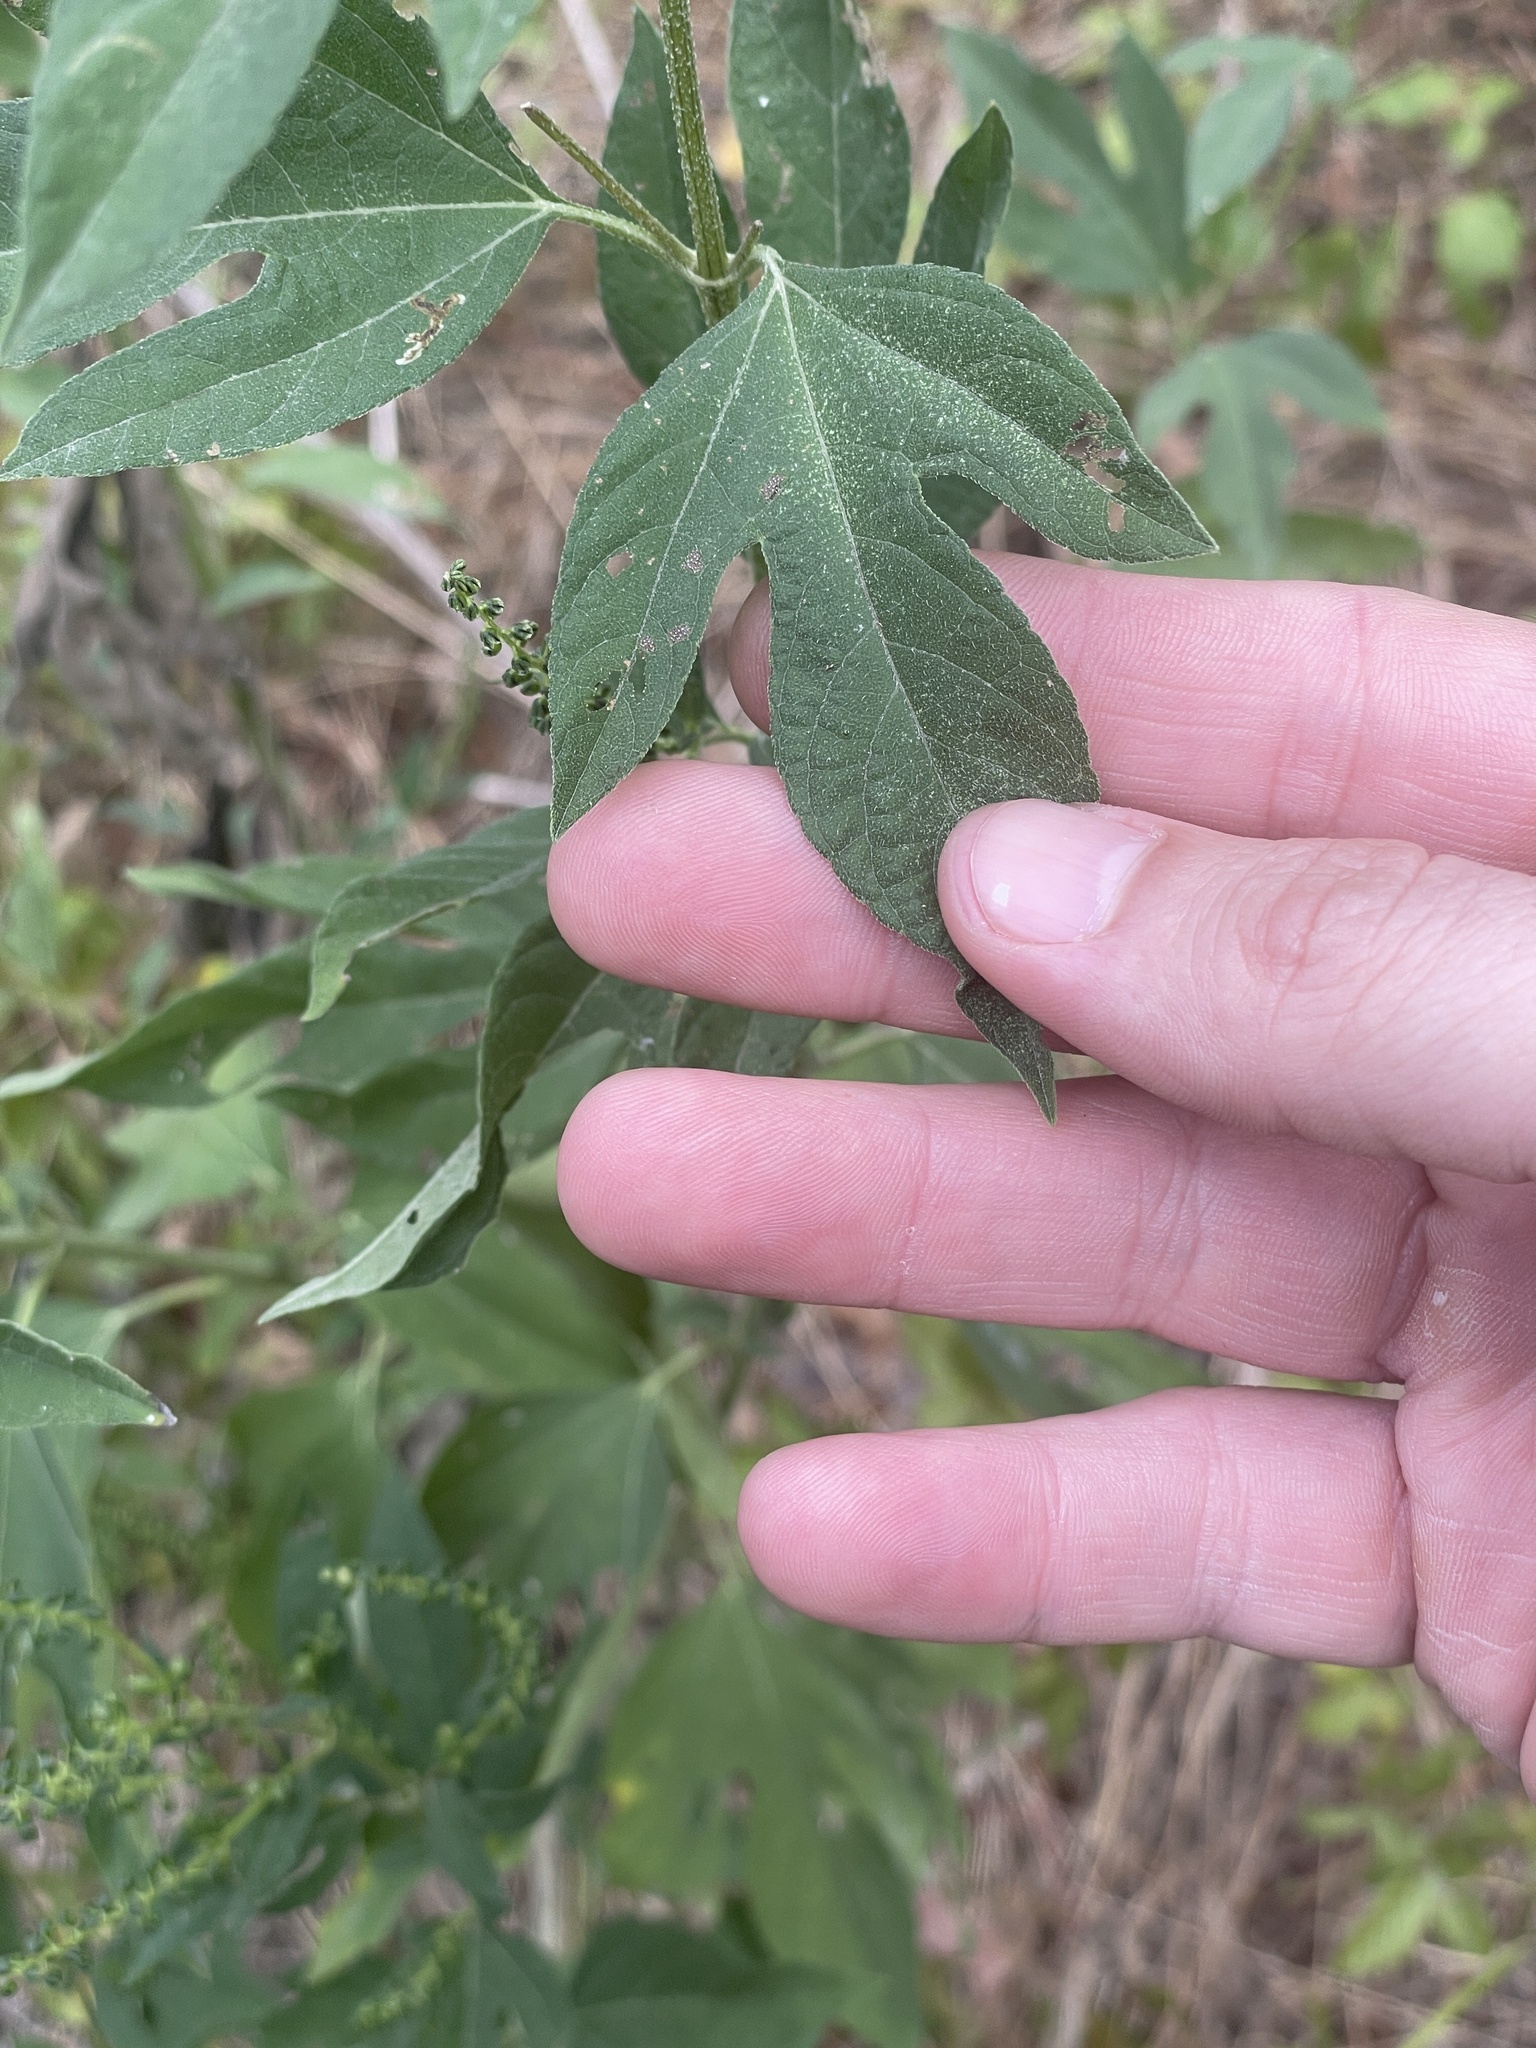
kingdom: Plantae
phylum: Tracheophyta
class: Magnoliopsida
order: Asterales
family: Asteraceae
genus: Ambrosia
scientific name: Ambrosia trifida
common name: Giant ragweed
